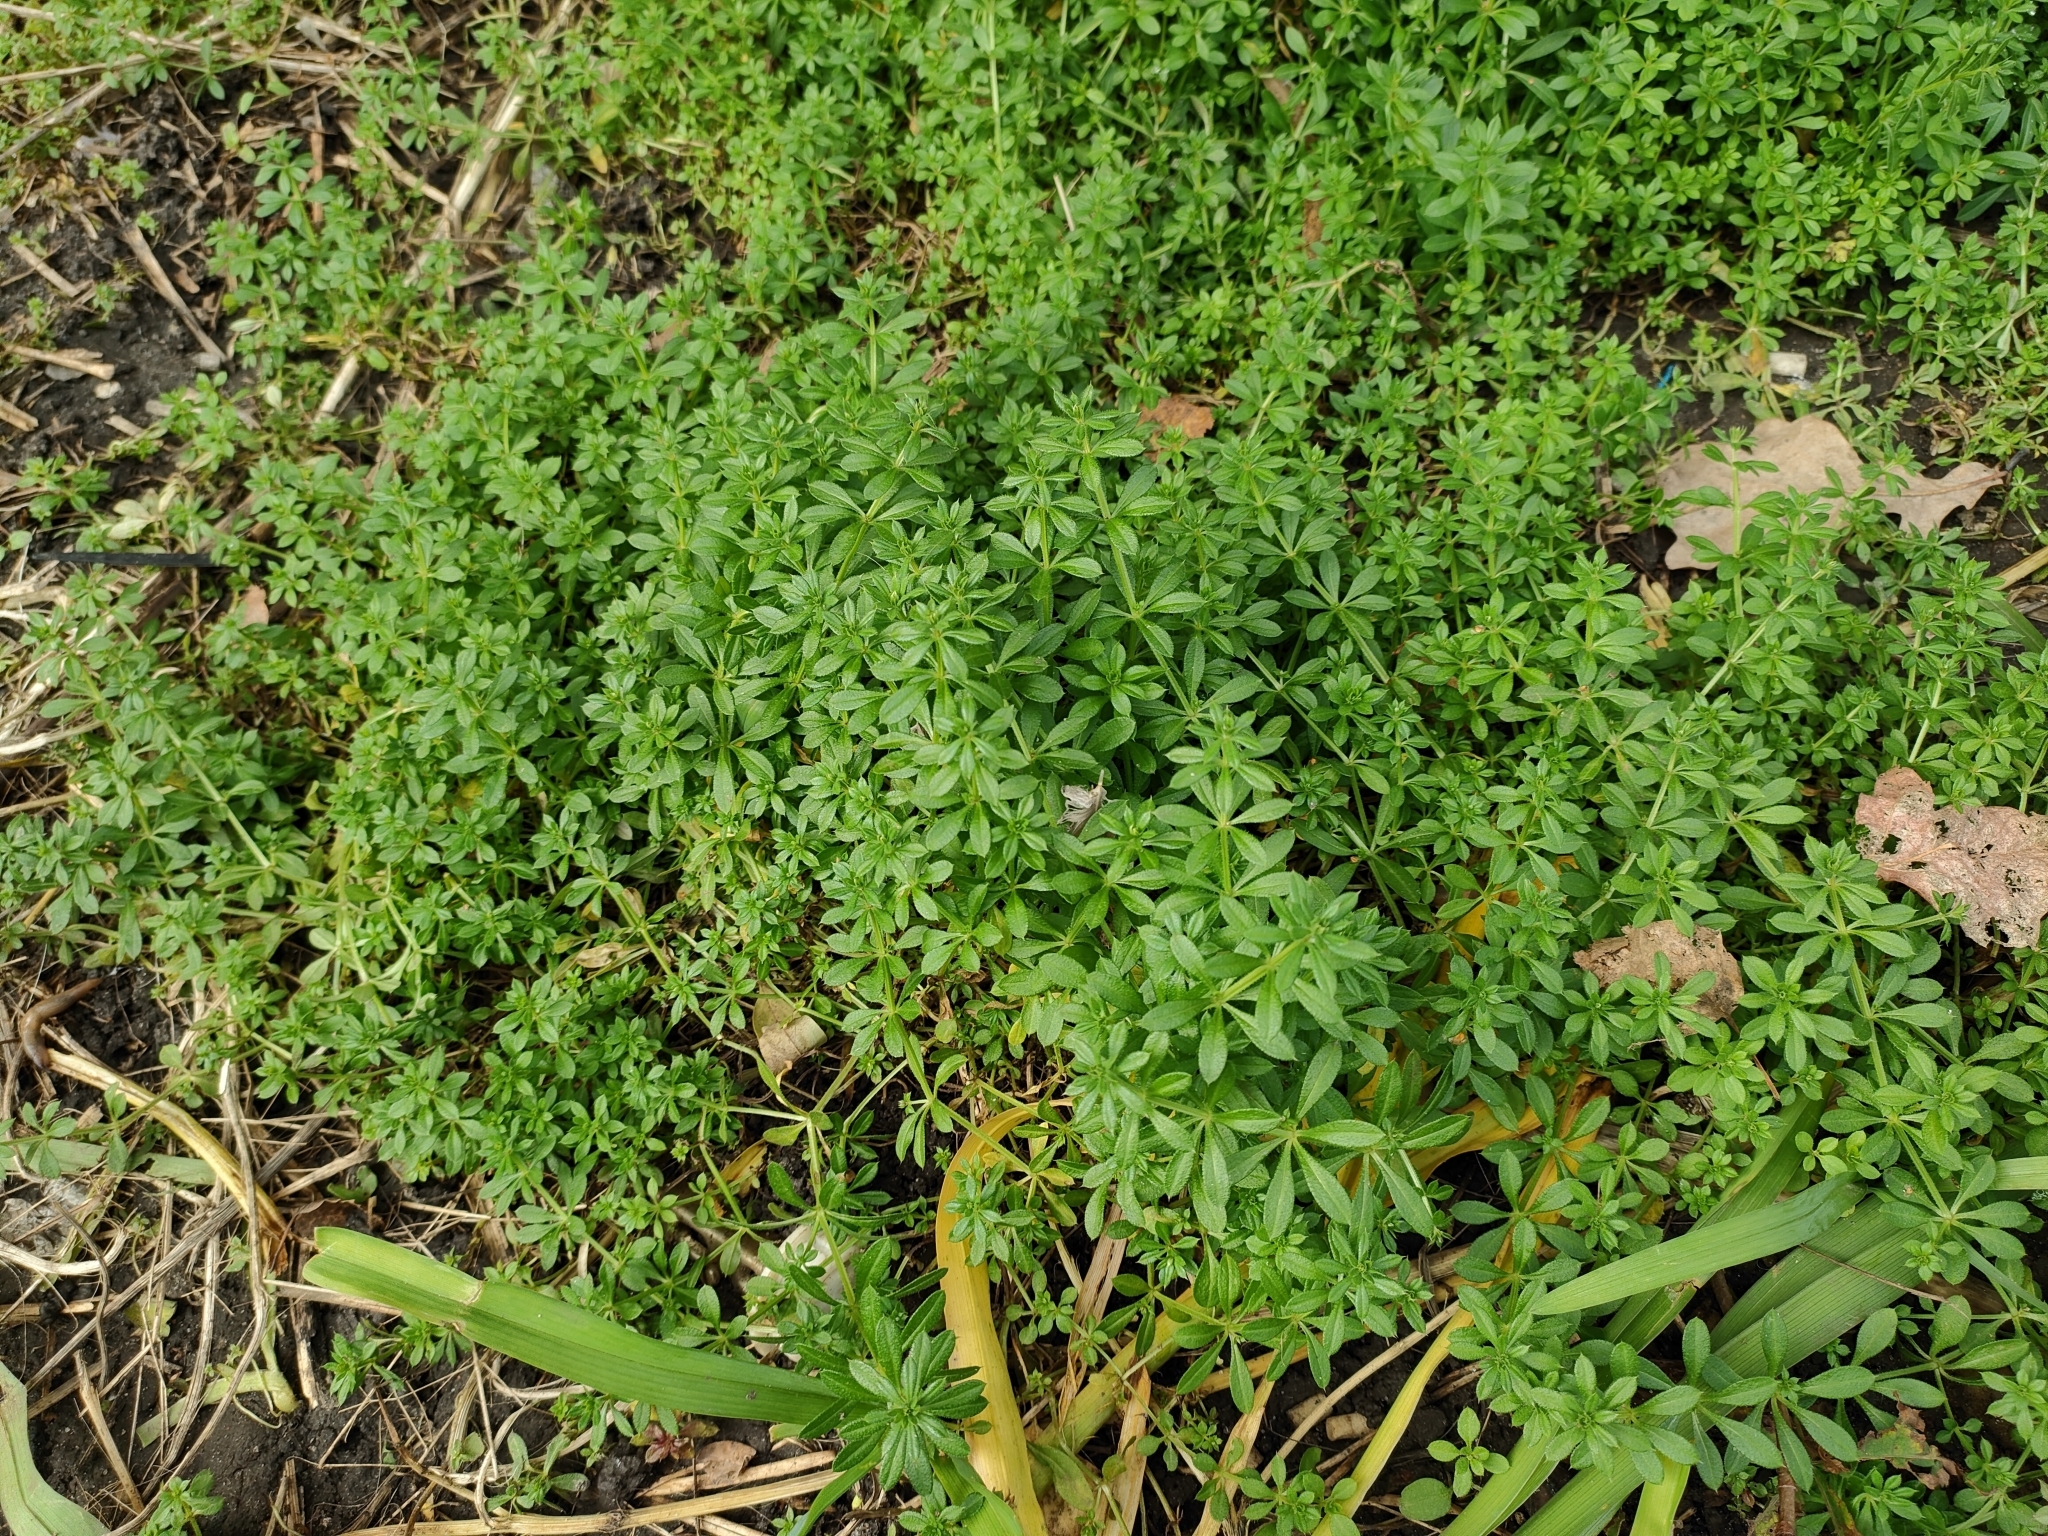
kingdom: Plantae
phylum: Tracheophyta
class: Magnoliopsida
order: Gentianales
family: Rubiaceae
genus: Galium
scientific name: Galium aparine
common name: Cleavers
